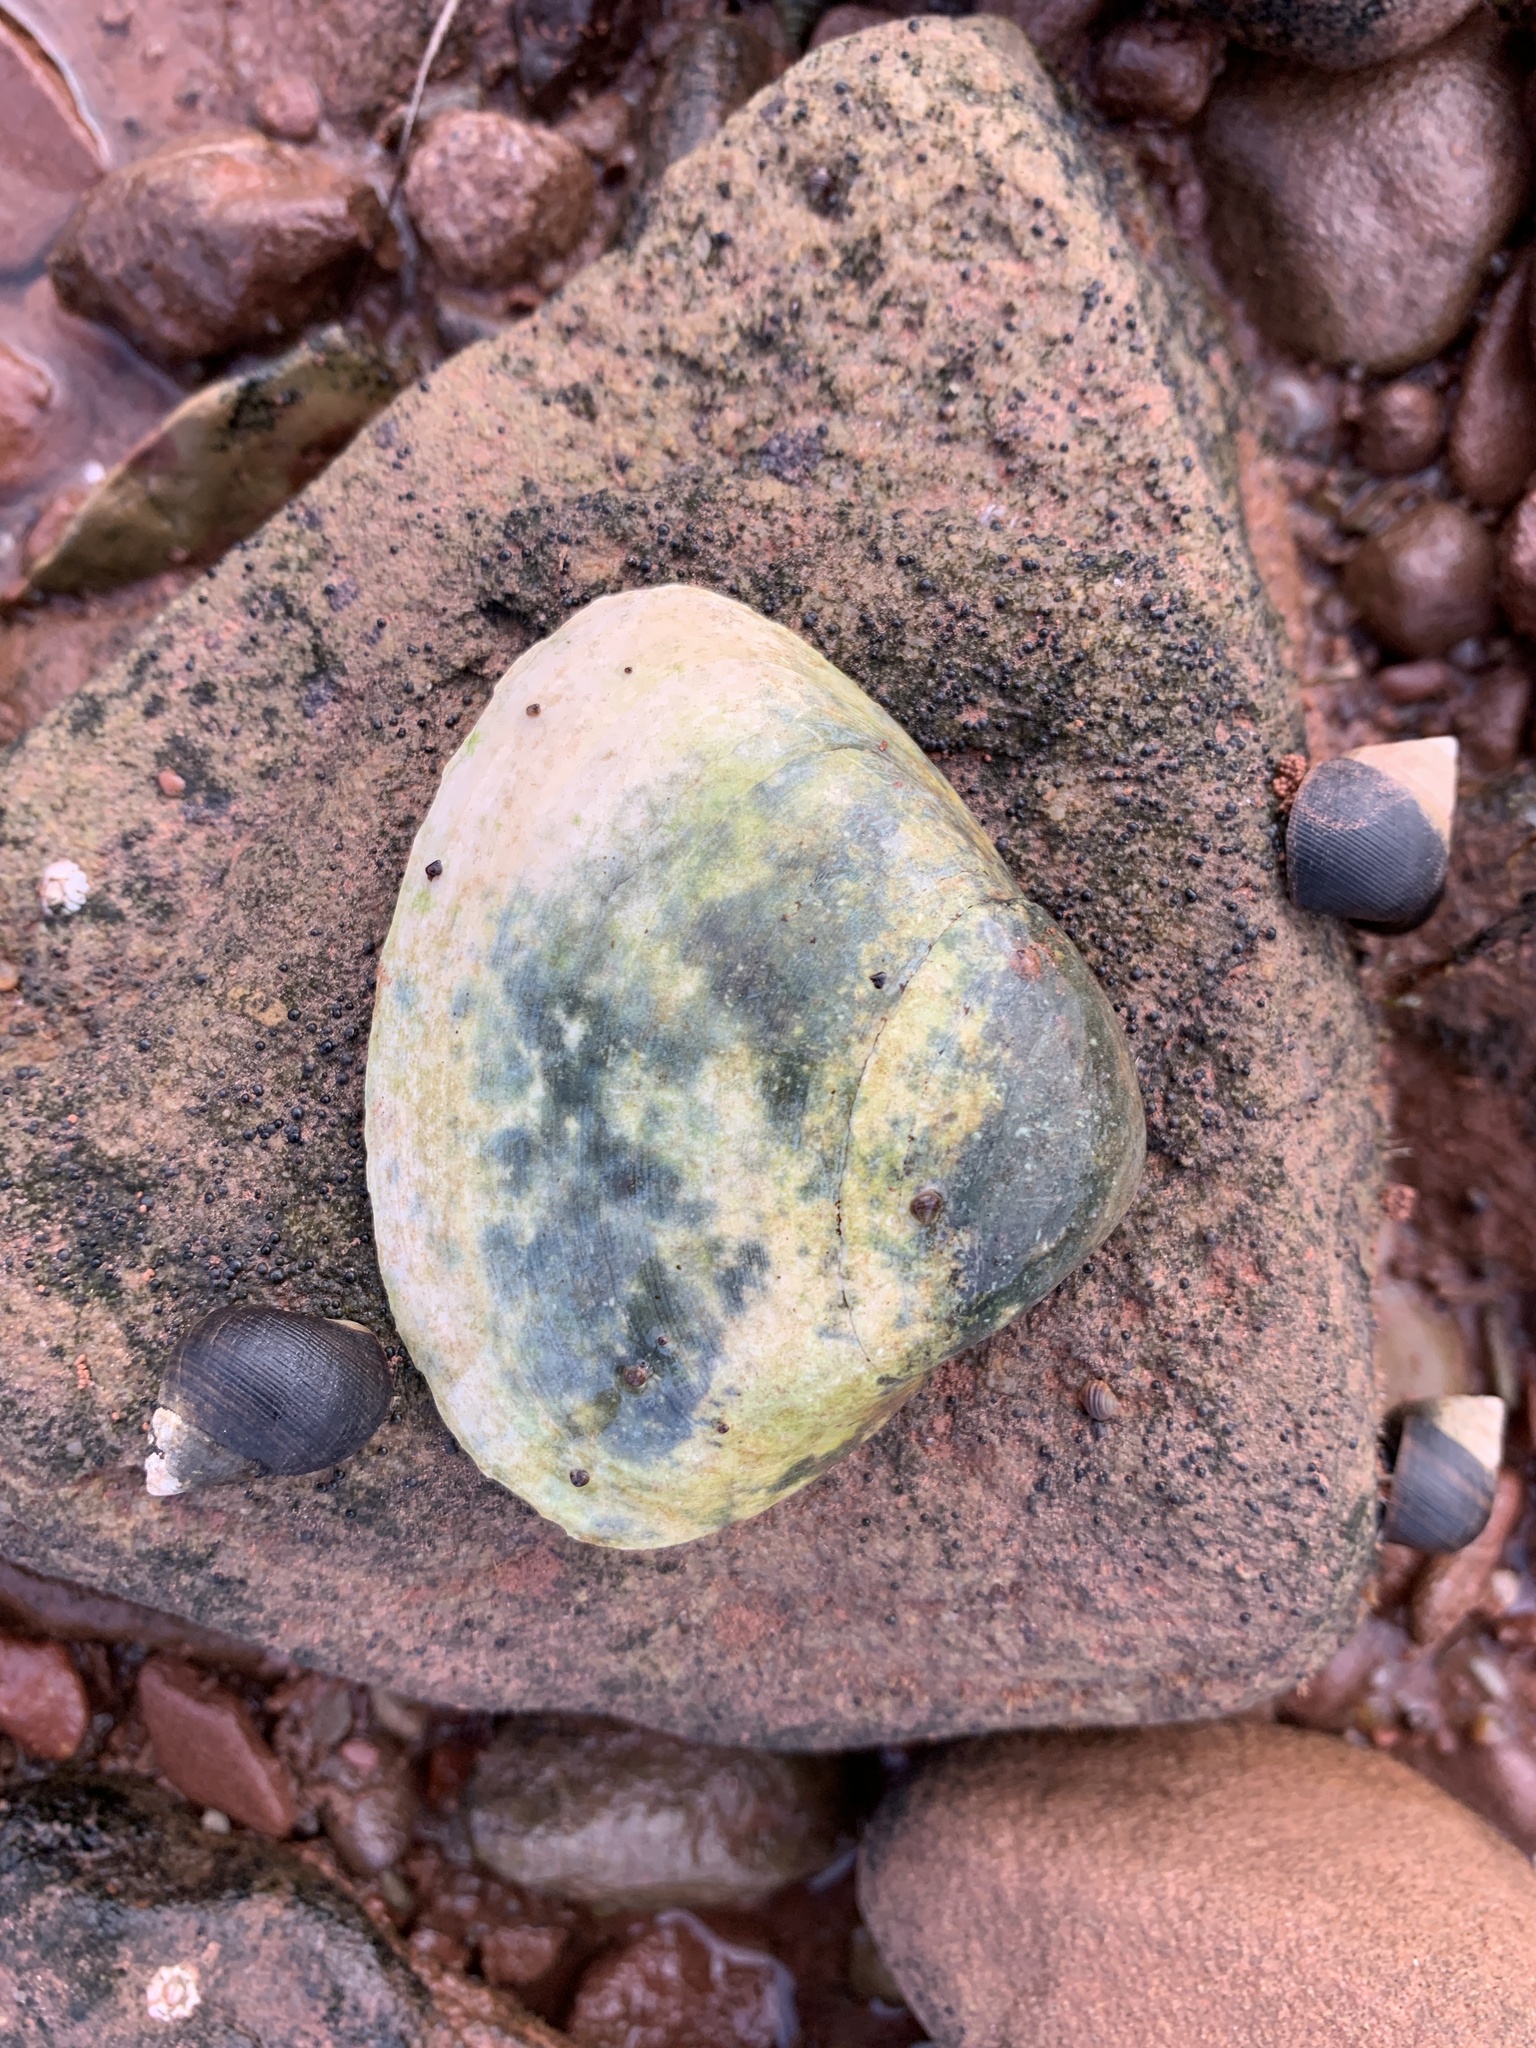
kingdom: Animalia
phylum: Mollusca
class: Bivalvia
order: Venerida
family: Mactridae
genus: Spisula
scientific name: Spisula solidissima
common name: Atlantic surf clam
